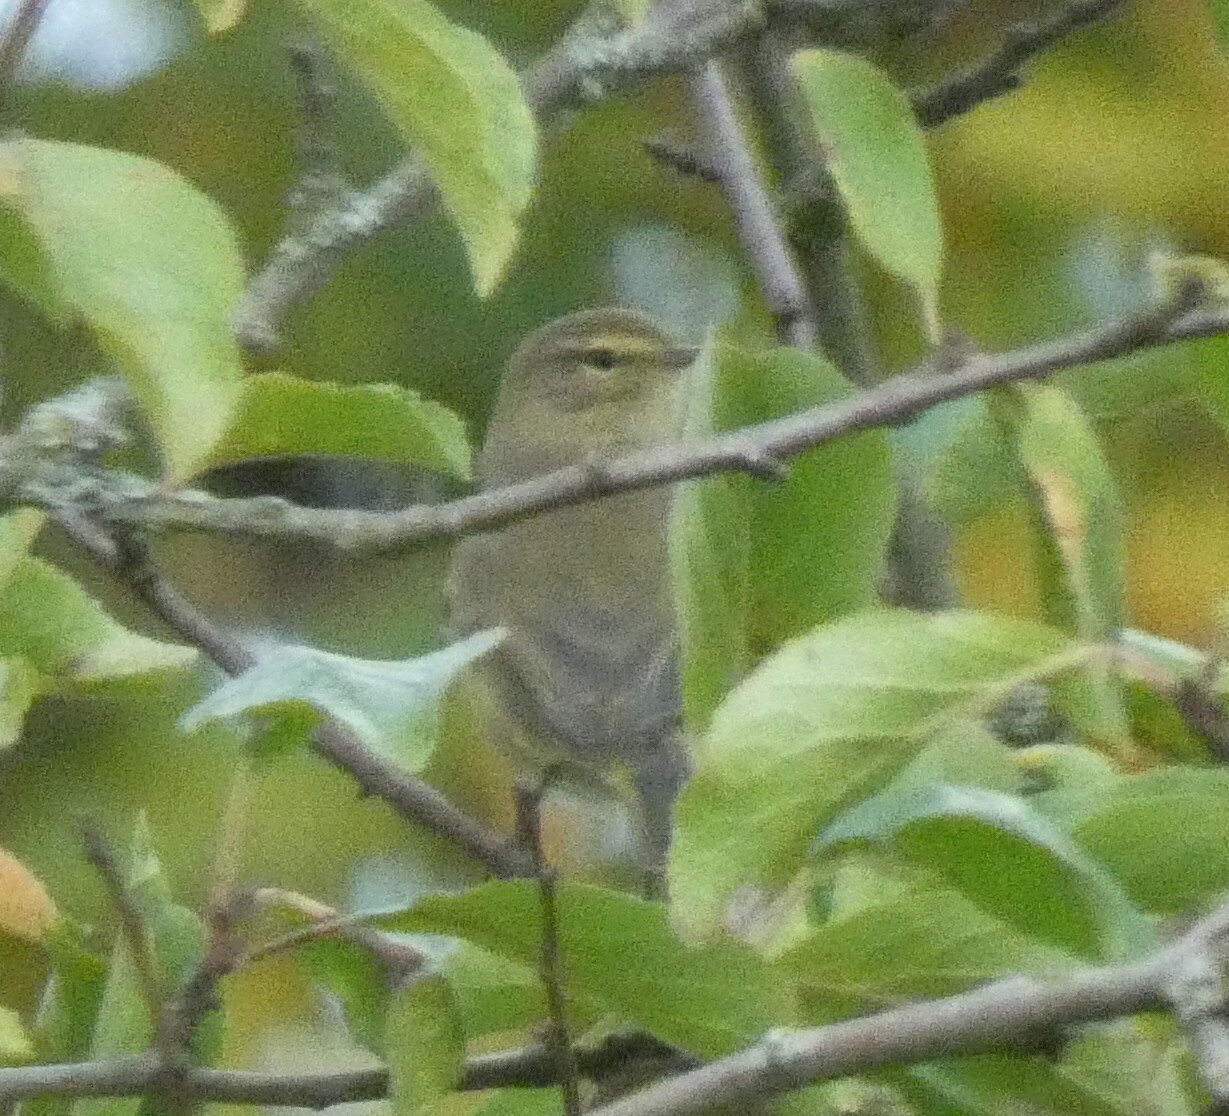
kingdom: Animalia
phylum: Chordata
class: Aves
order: Passeriformes
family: Phylloscopidae
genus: Phylloscopus
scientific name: Phylloscopus collybita
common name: Common chiffchaff
